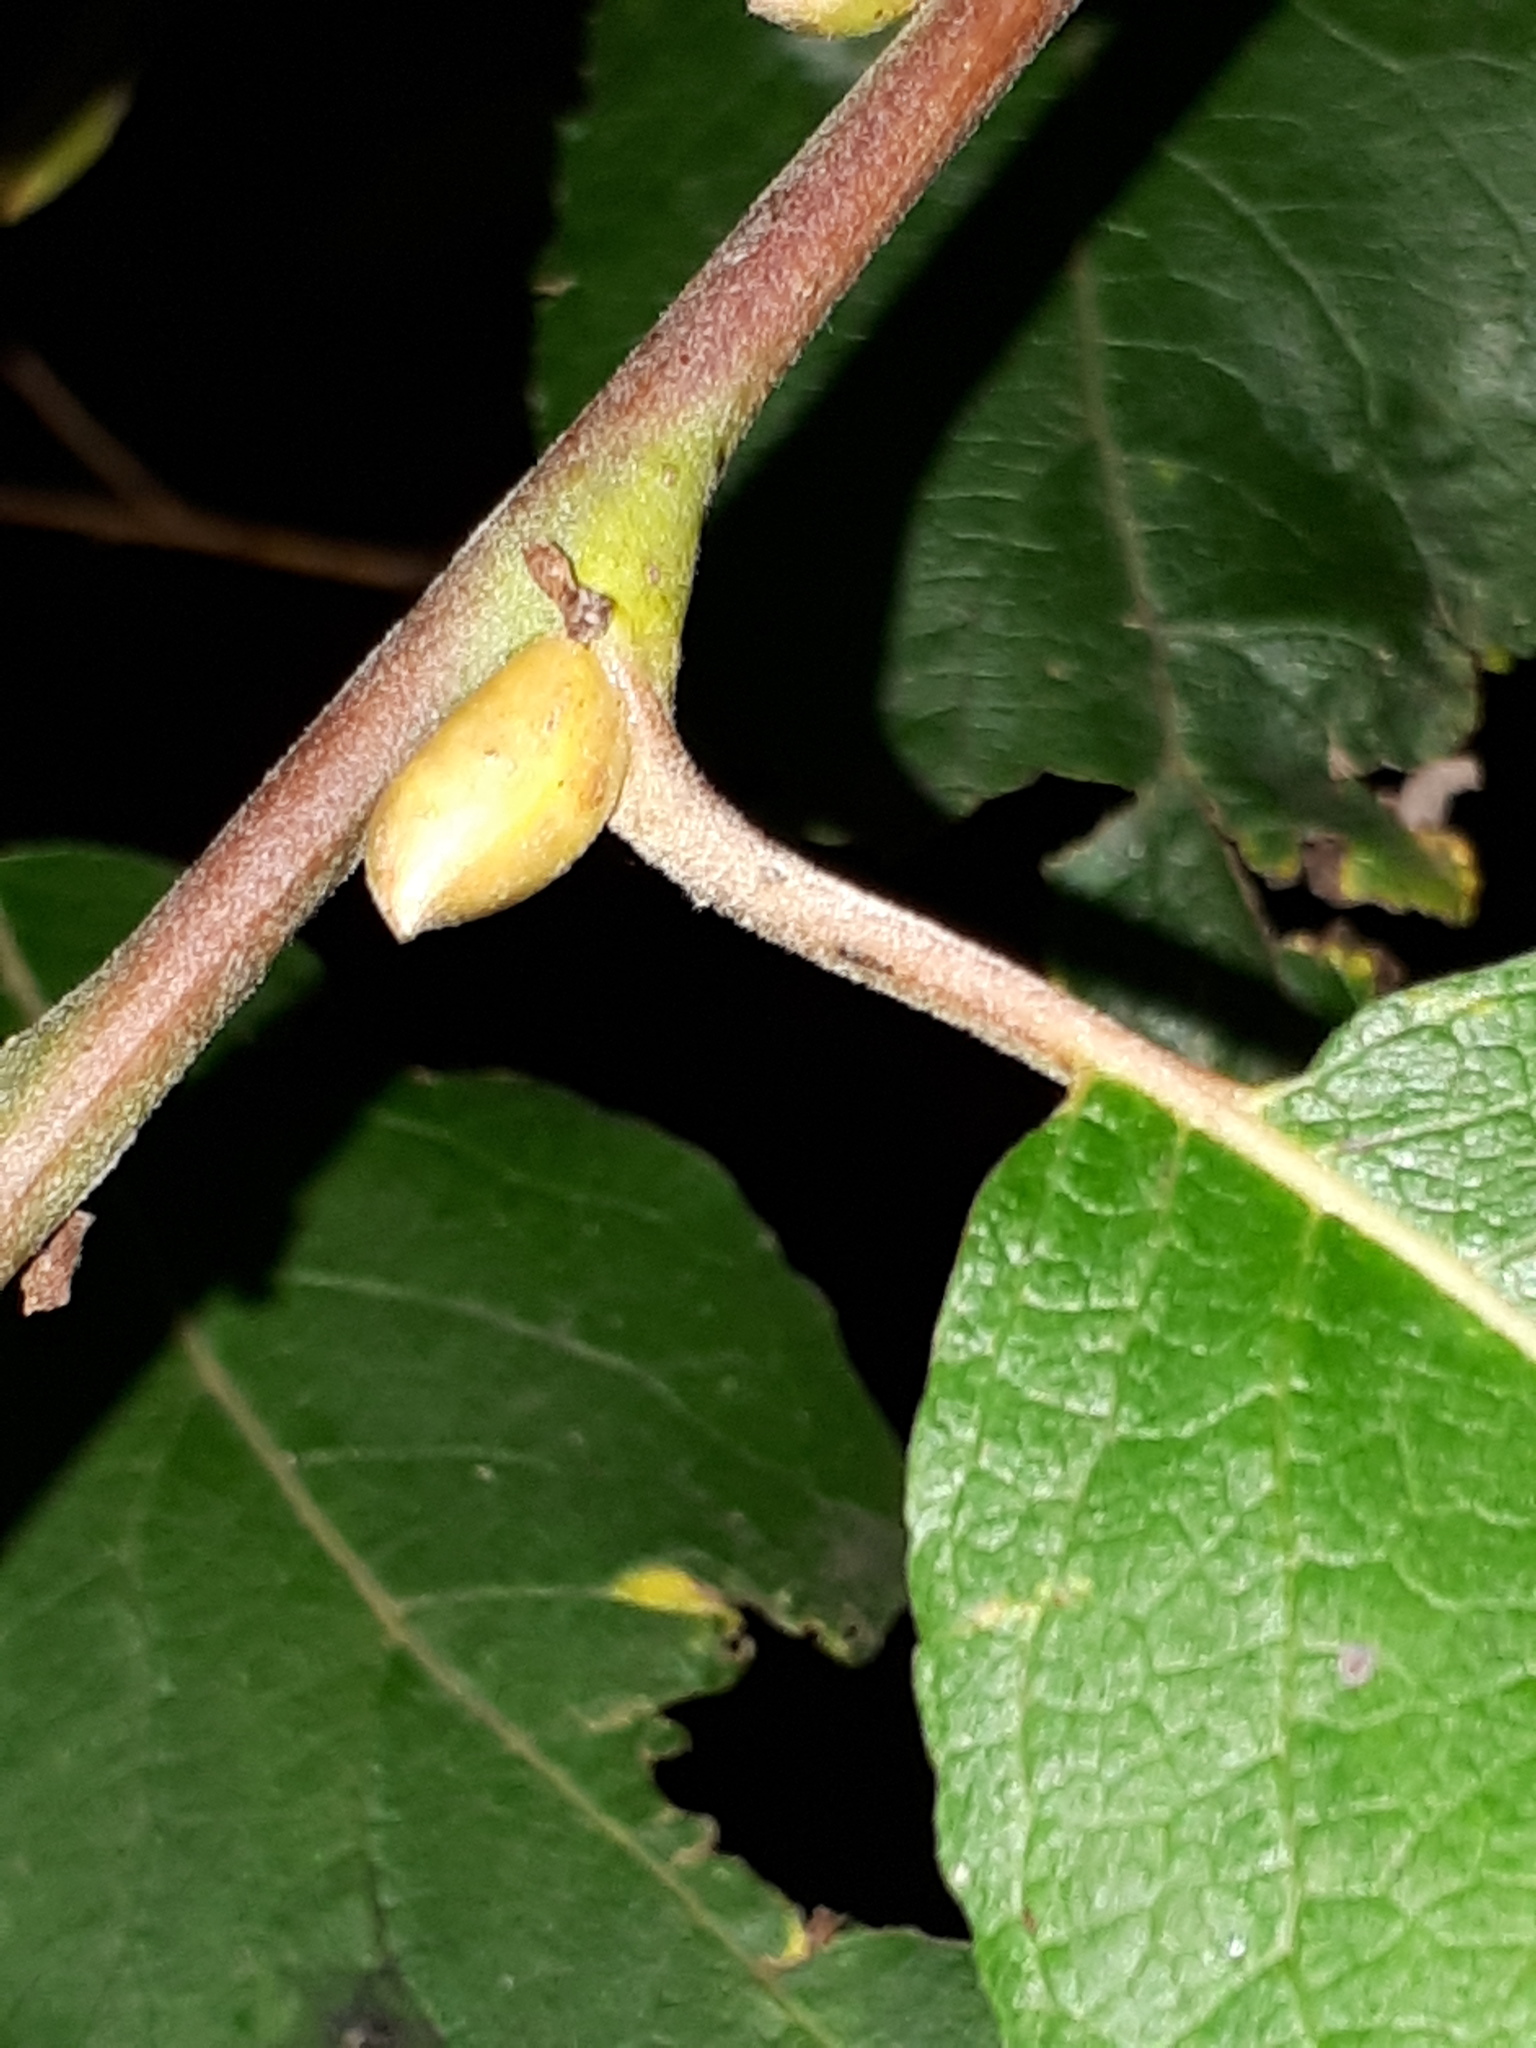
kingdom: Plantae
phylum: Tracheophyta
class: Magnoliopsida
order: Malpighiales
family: Salicaceae
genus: Salix
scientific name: Salix caprea
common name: Goat willow
